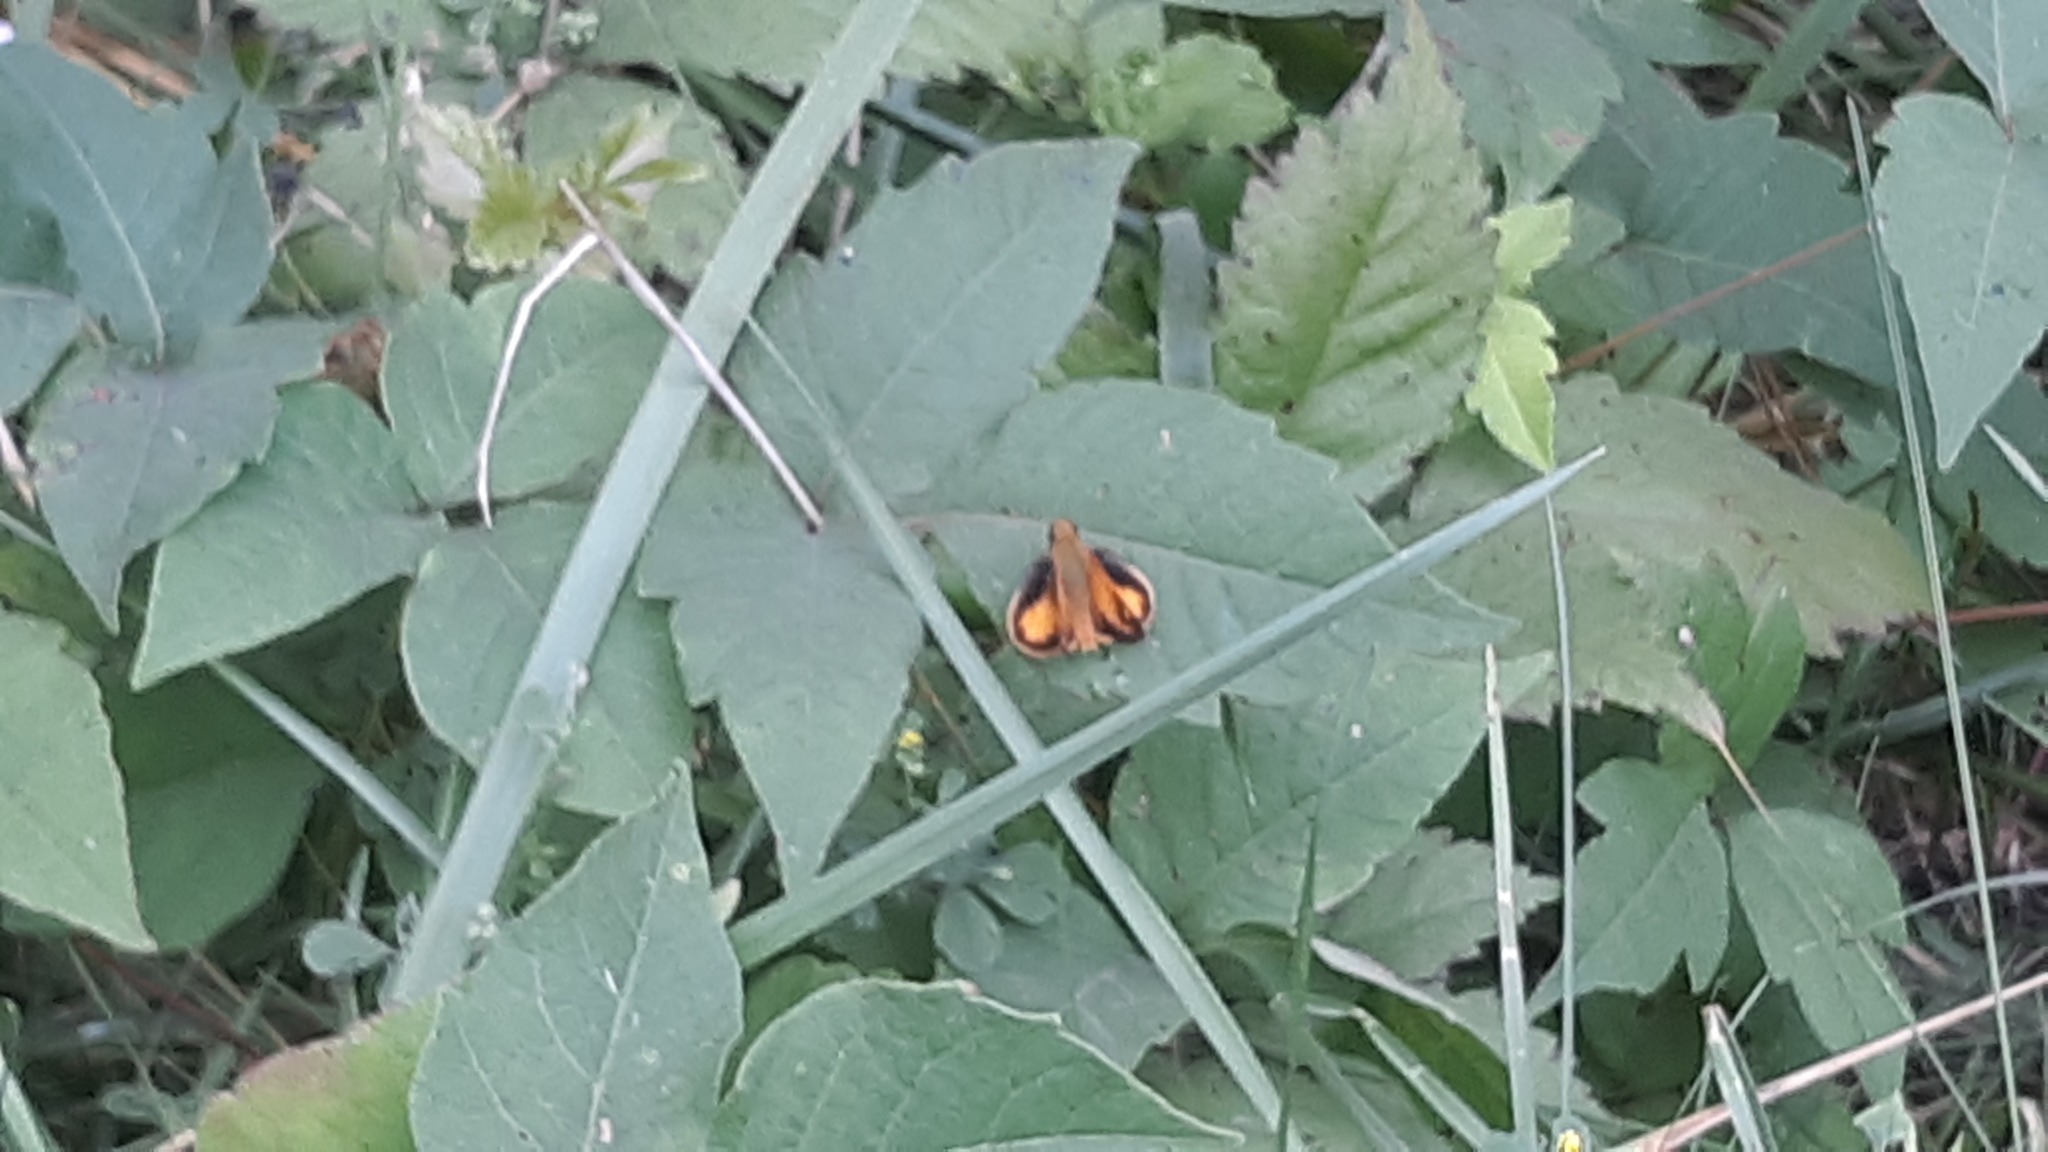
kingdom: Animalia
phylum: Arthropoda
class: Insecta
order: Lepidoptera
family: Hesperiidae
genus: Lon
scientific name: Lon zabulon
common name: Zabulon skipper
